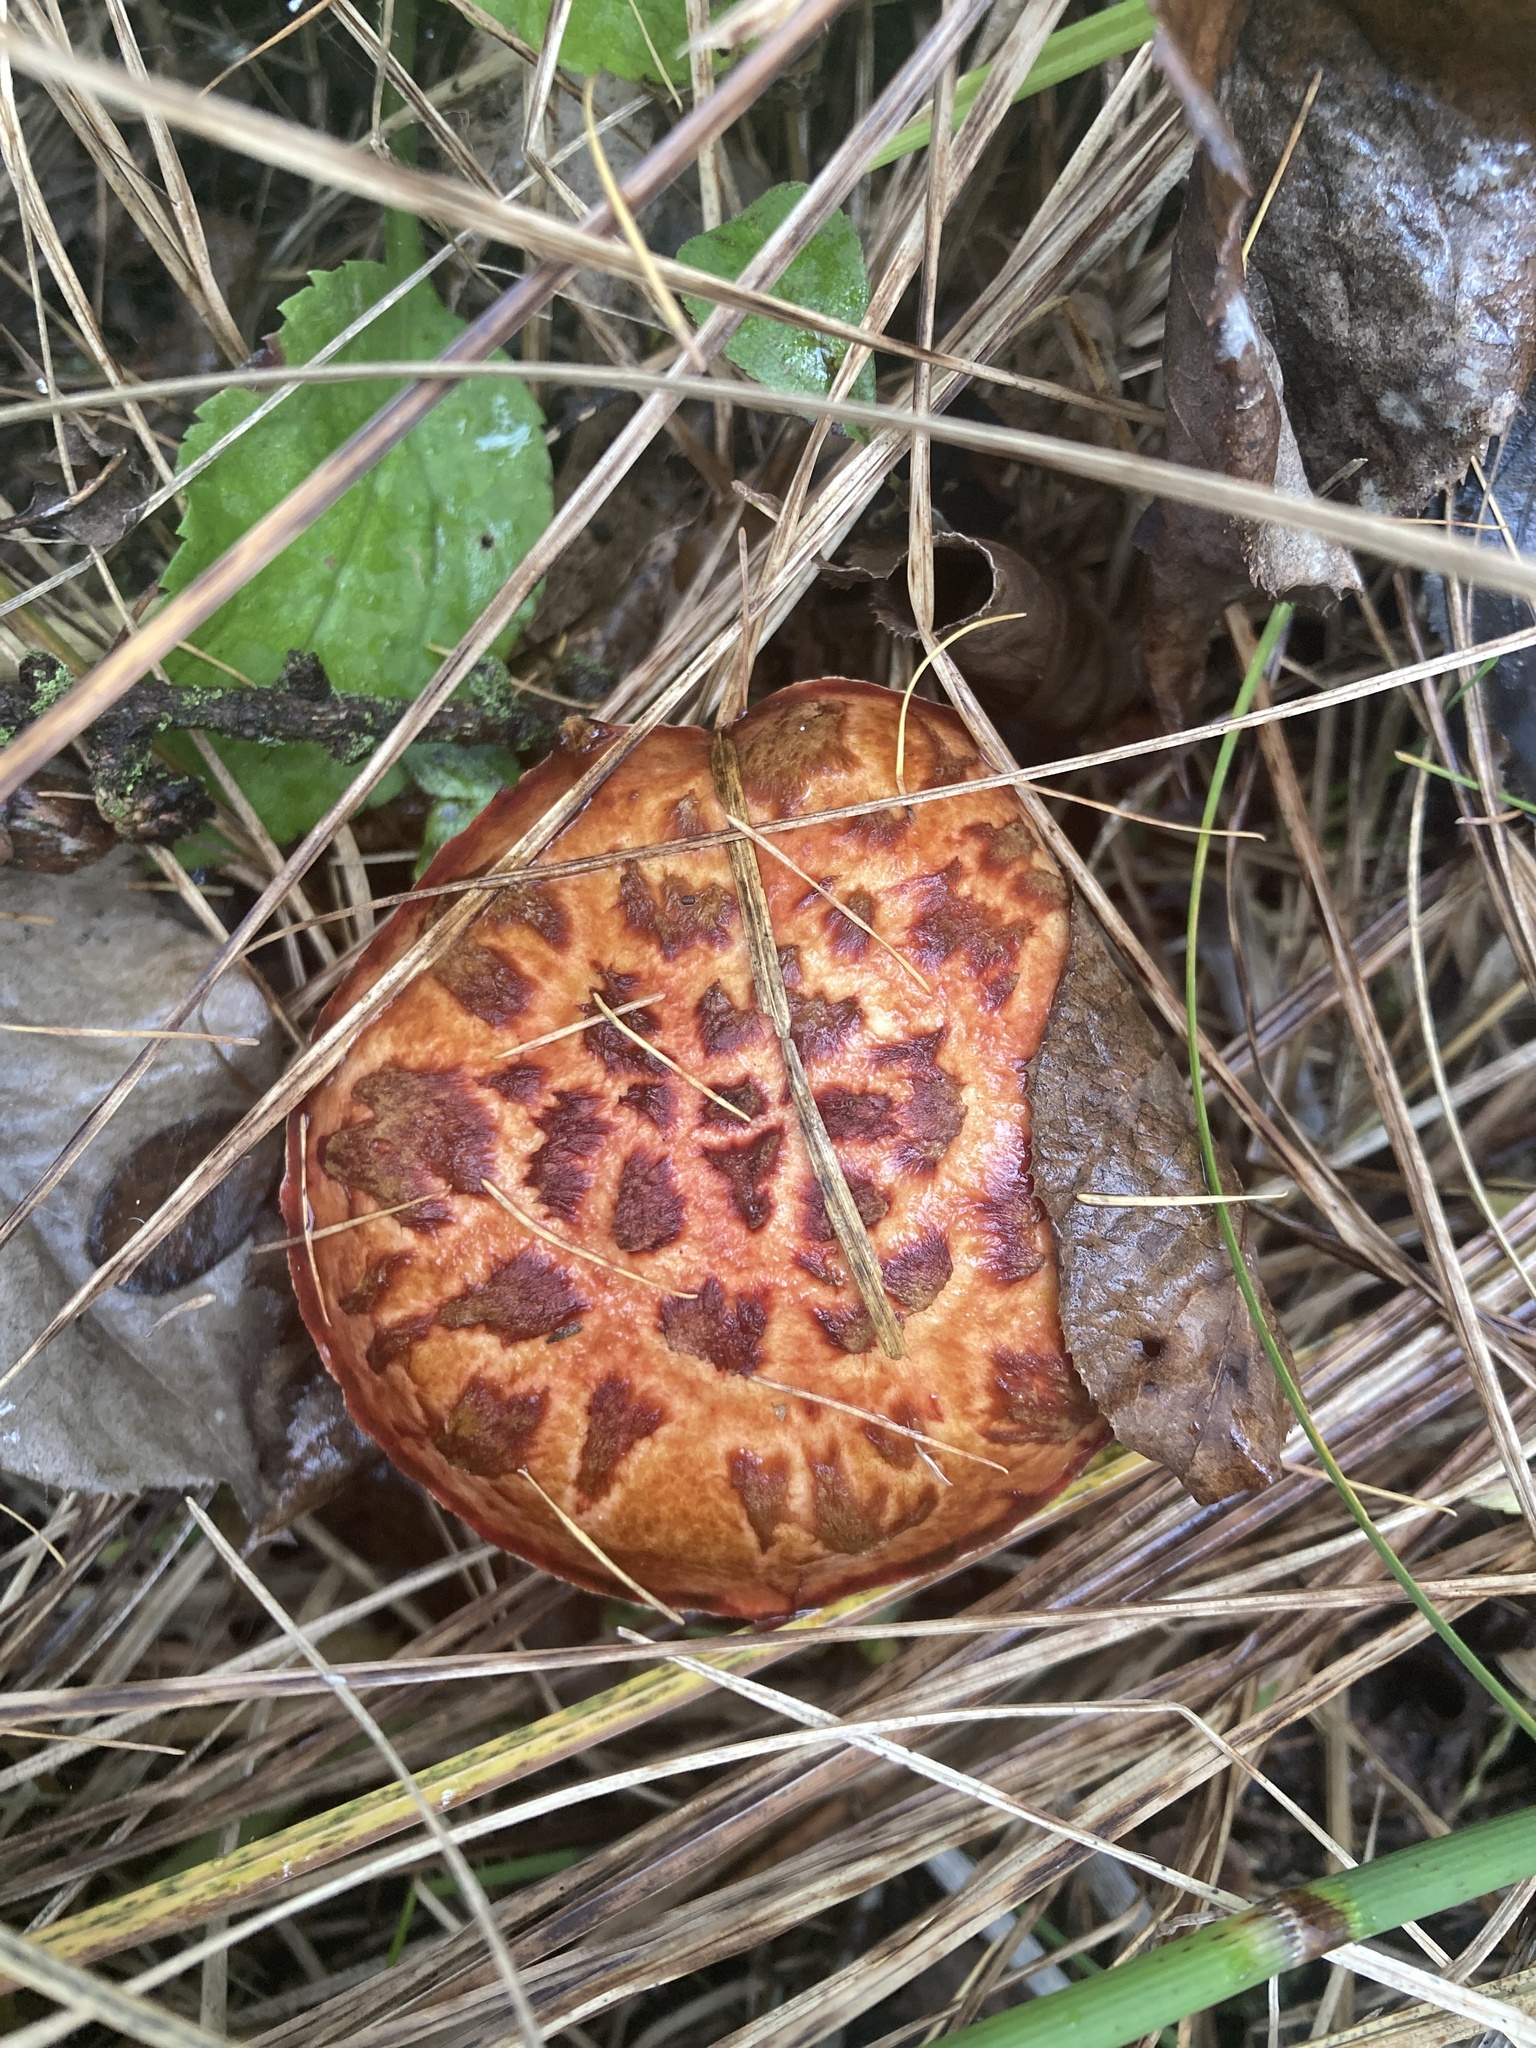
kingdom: Fungi
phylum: Basidiomycota
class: Agaricomycetes
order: Boletales
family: Suillaceae
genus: Boletinus
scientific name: Boletinus spectabilis
